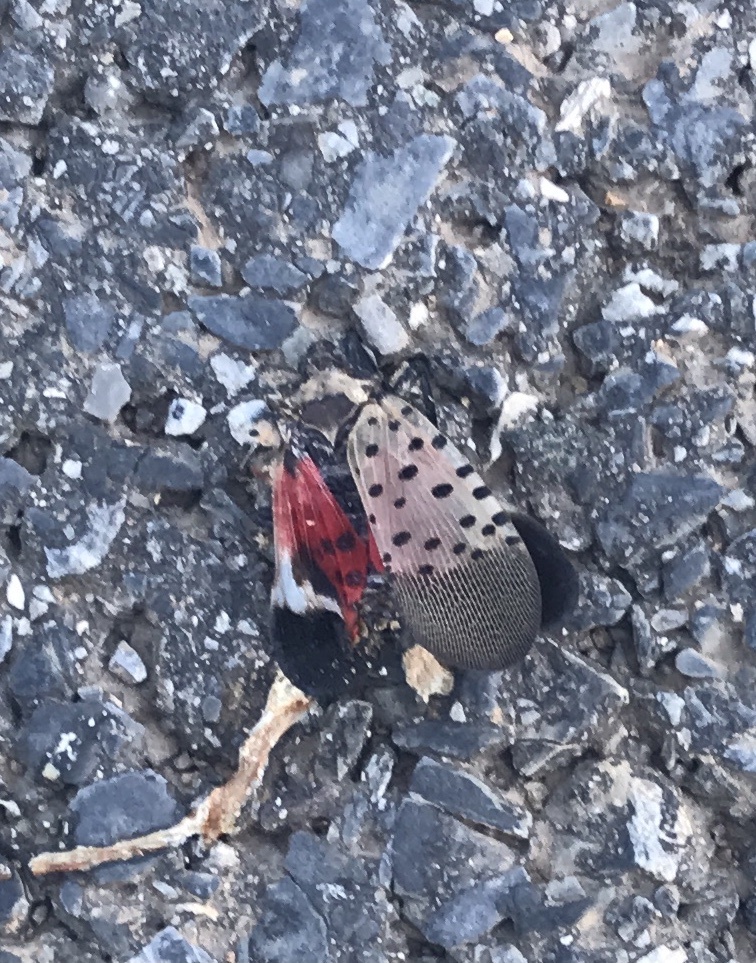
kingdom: Animalia
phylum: Arthropoda
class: Insecta
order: Hemiptera
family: Fulgoridae
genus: Lycorma
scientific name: Lycorma delicatula
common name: Spotted lanternfly
